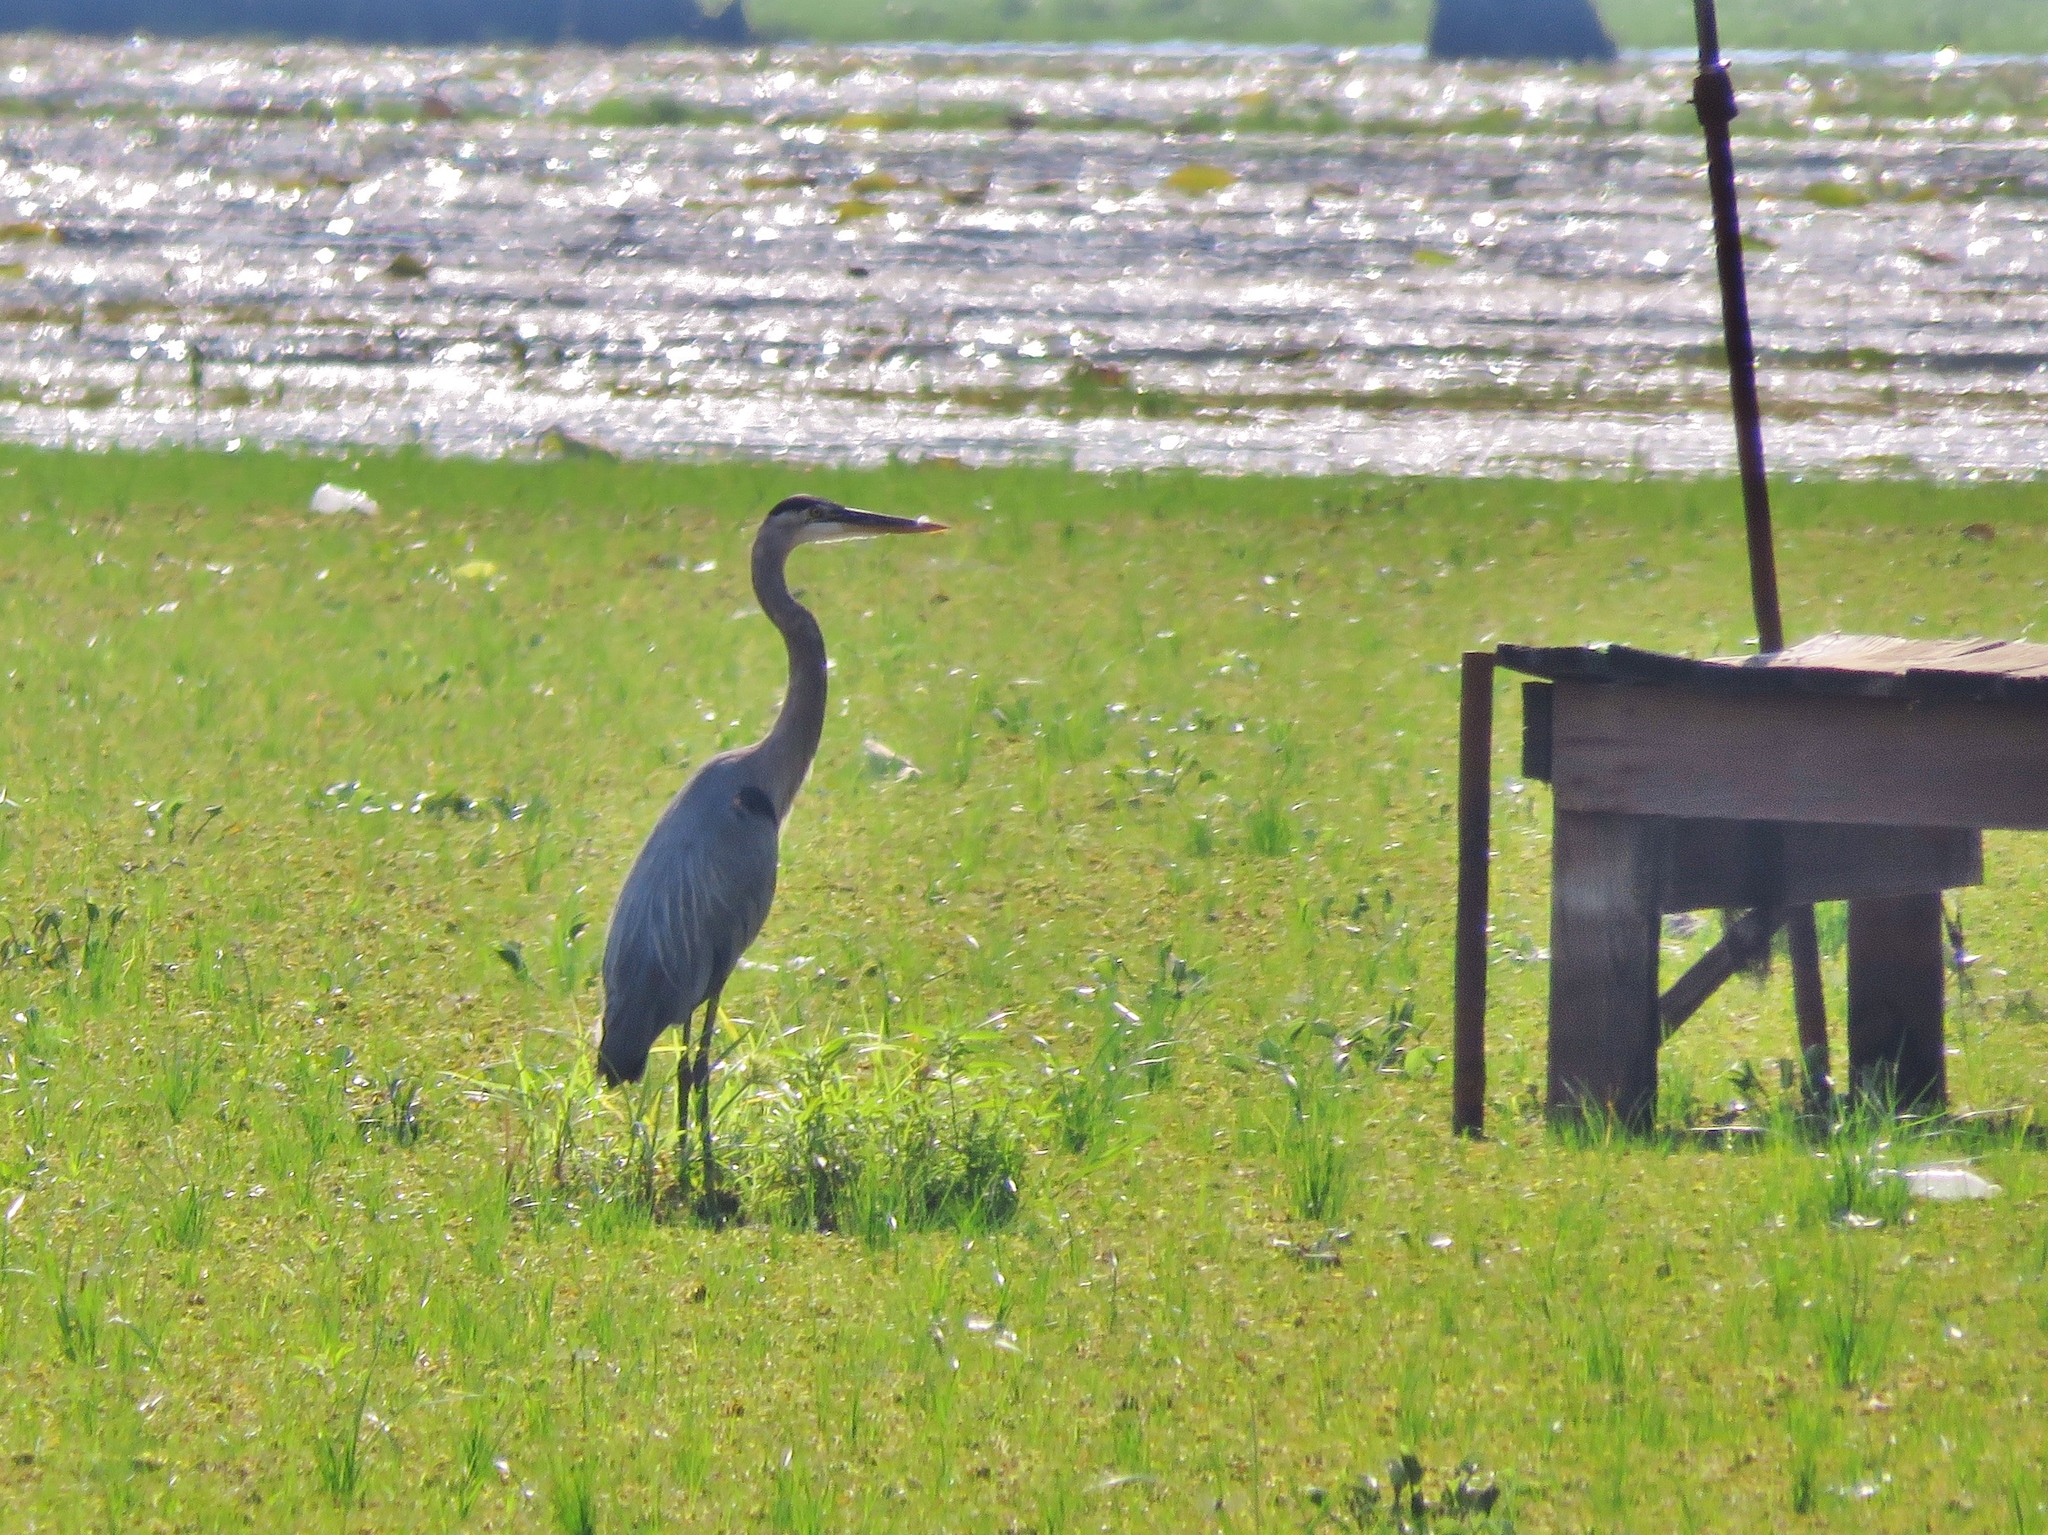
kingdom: Animalia
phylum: Chordata
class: Aves
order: Pelecaniformes
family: Ardeidae
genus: Ardea
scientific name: Ardea herodias
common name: Great blue heron
